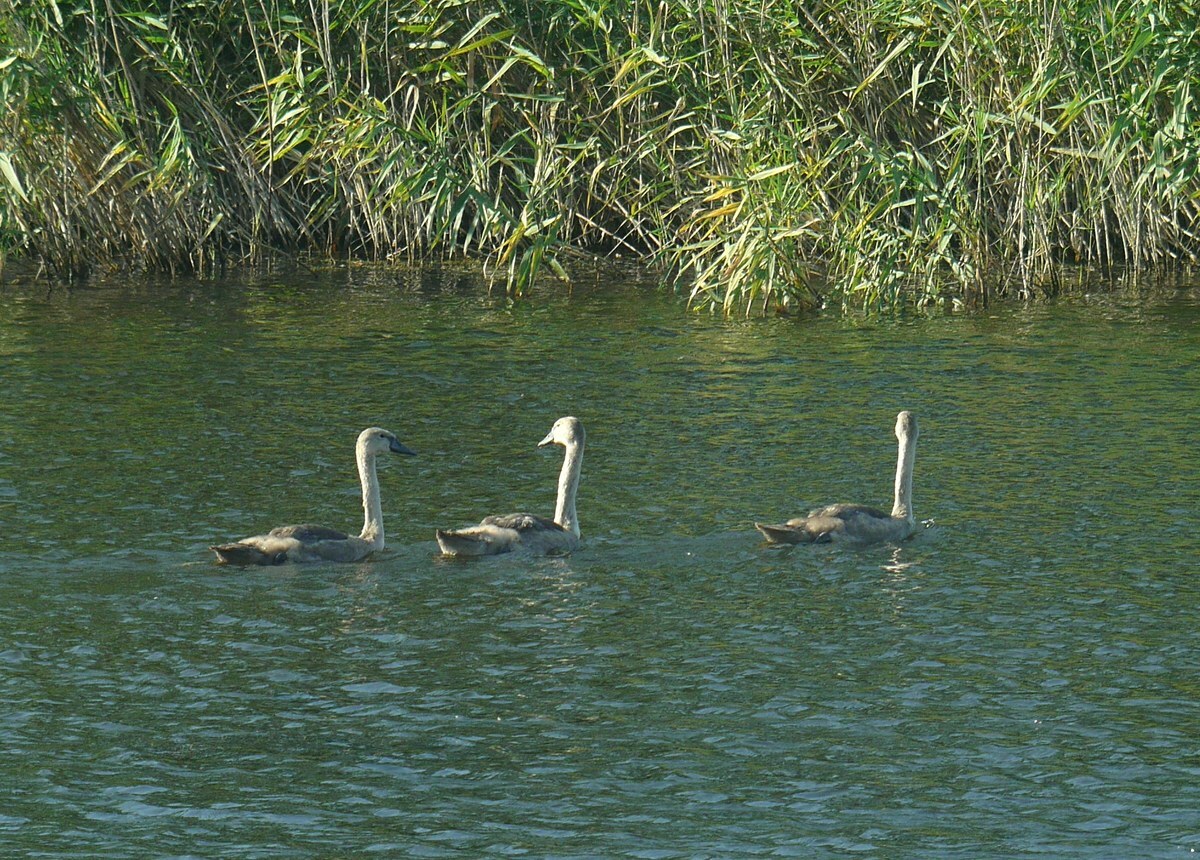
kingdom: Animalia
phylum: Chordata
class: Aves
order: Anseriformes
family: Anatidae
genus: Cygnus
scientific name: Cygnus olor
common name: Mute swan
